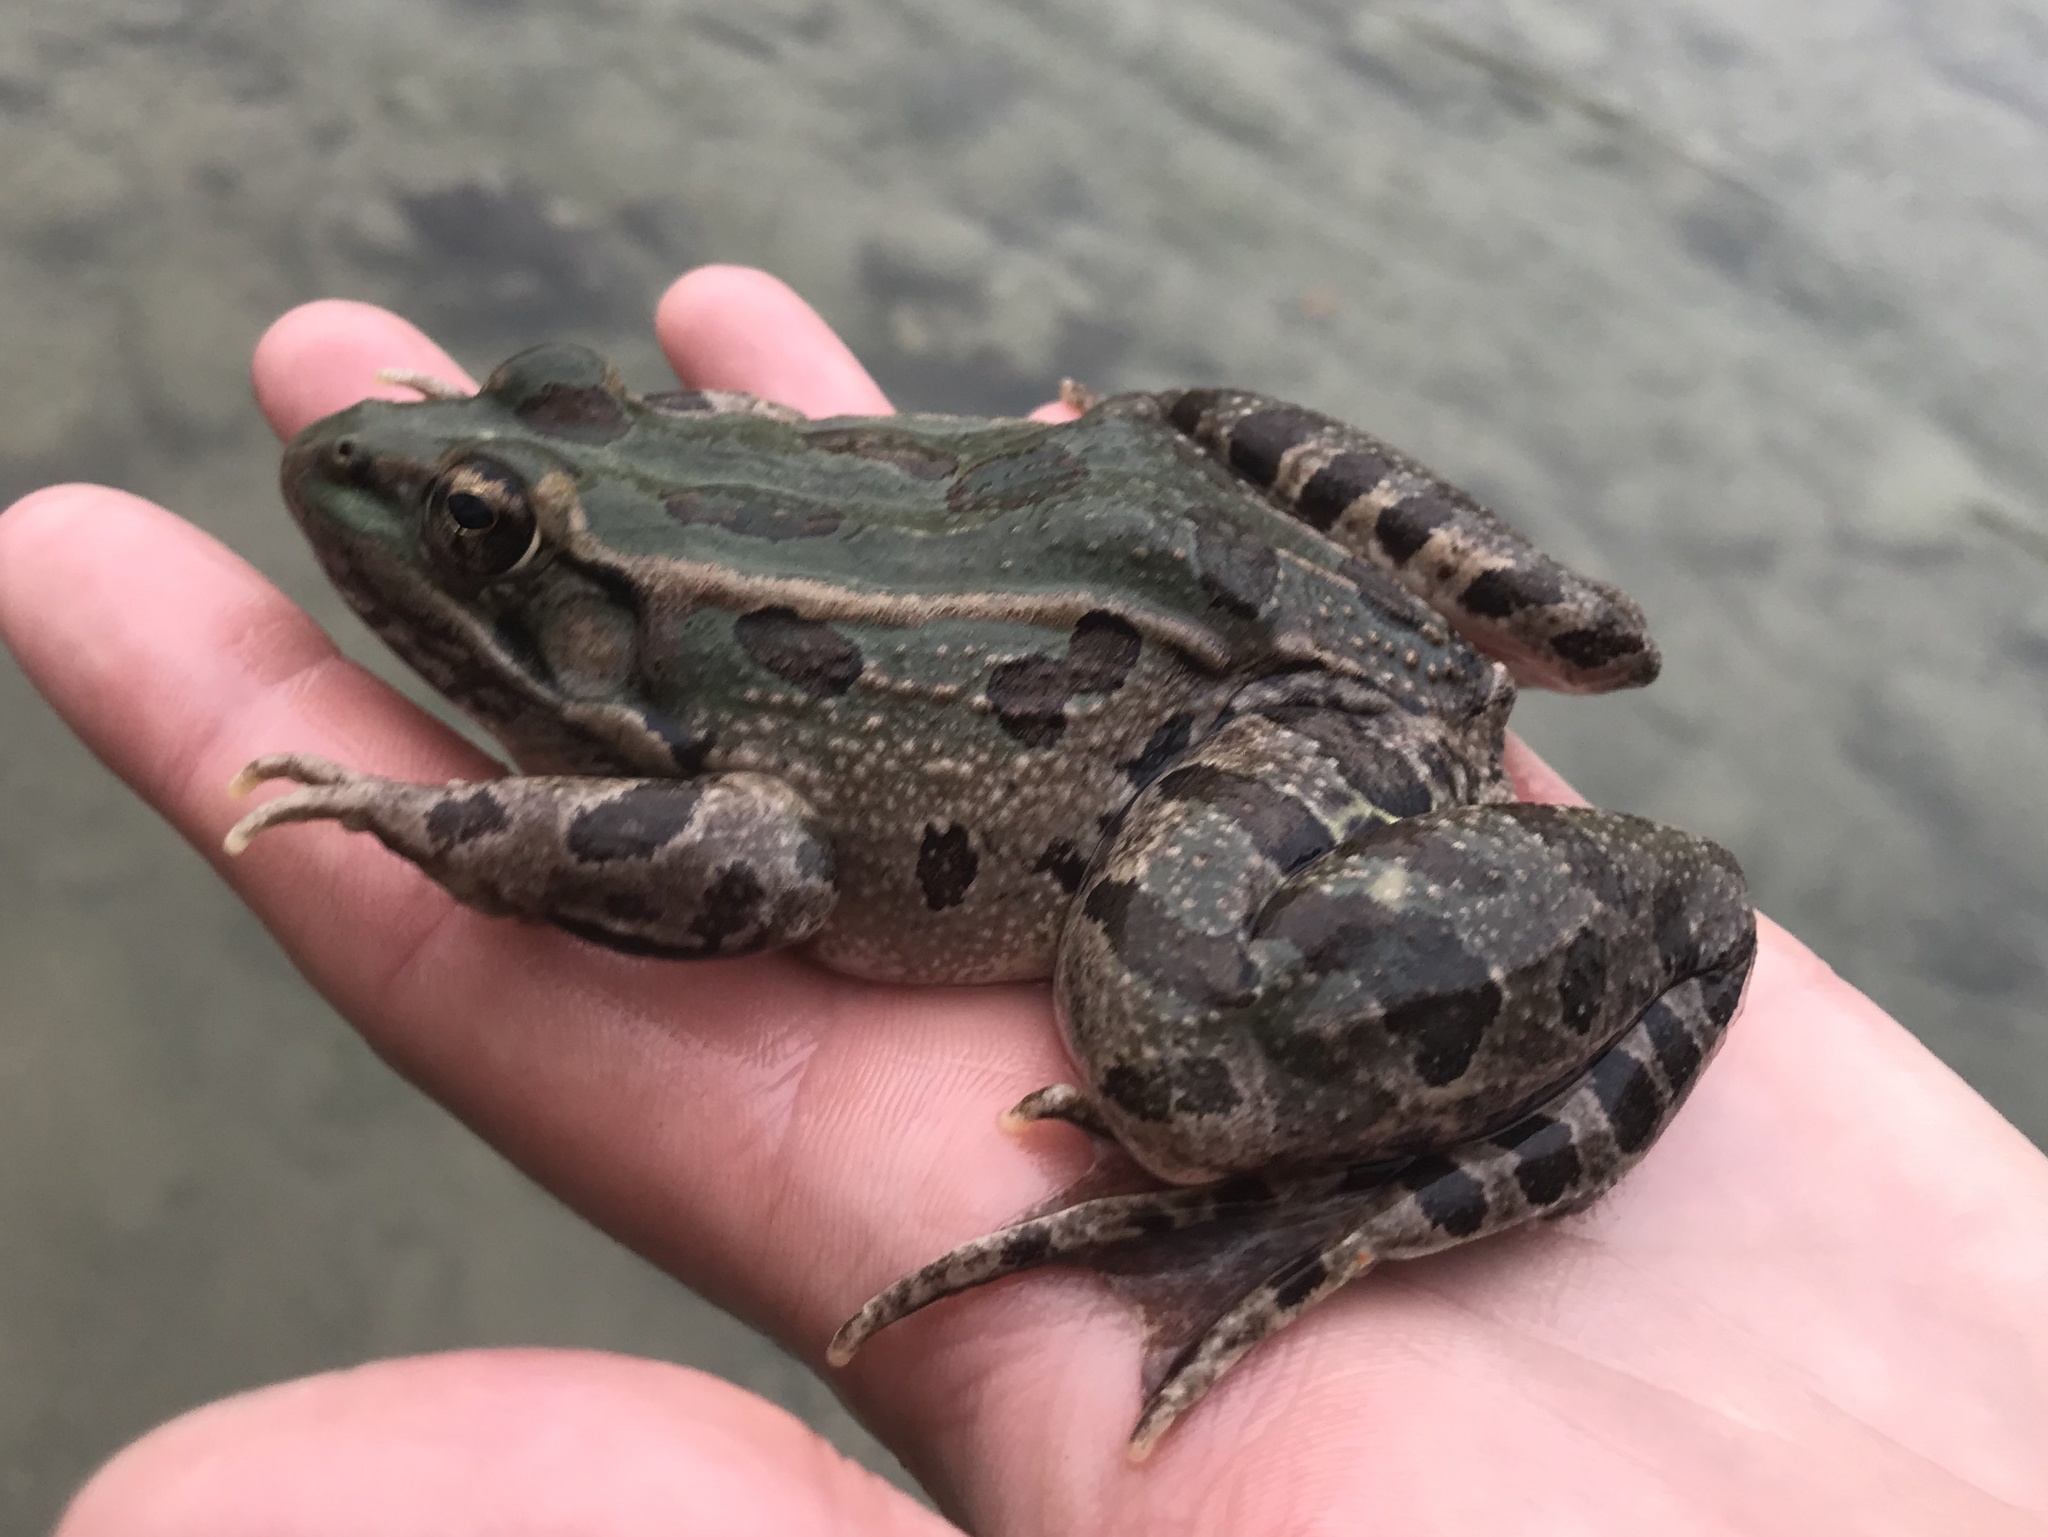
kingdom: Animalia
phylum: Chordata
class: Amphibia
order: Anura
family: Ranidae
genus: Lithobates
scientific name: Lithobates berlandieri
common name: Rio grande leopard frog
